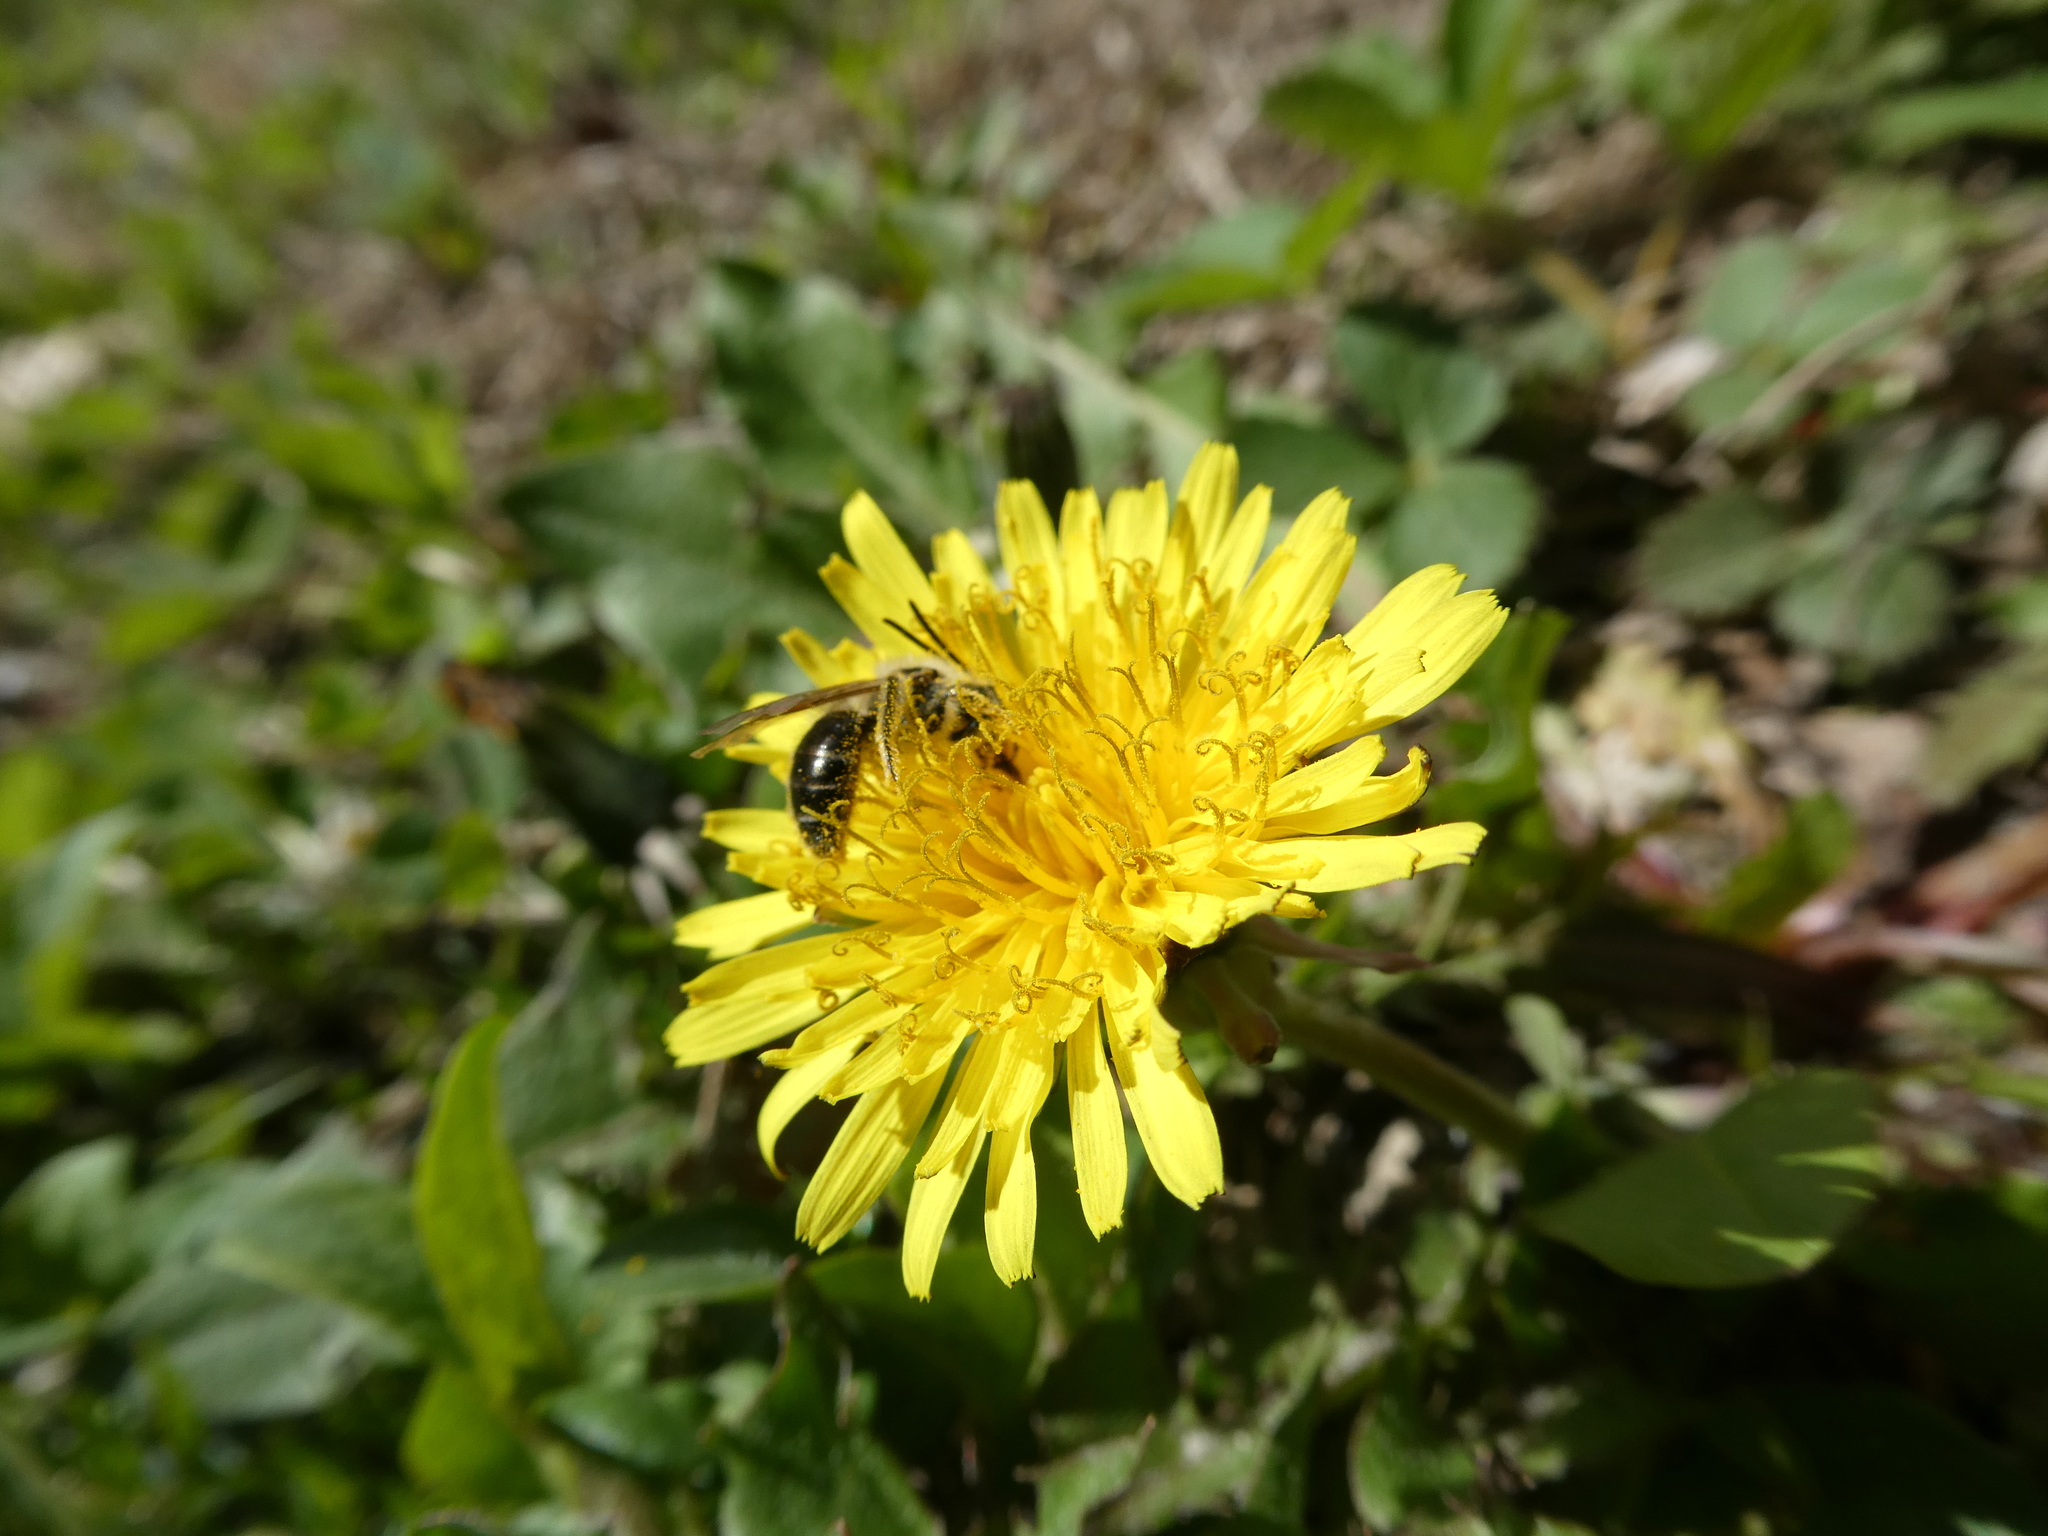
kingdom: Animalia
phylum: Arthropoda
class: Insecta
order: Hymenoptera
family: Andrenidae
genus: Andrena
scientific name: Andrena
